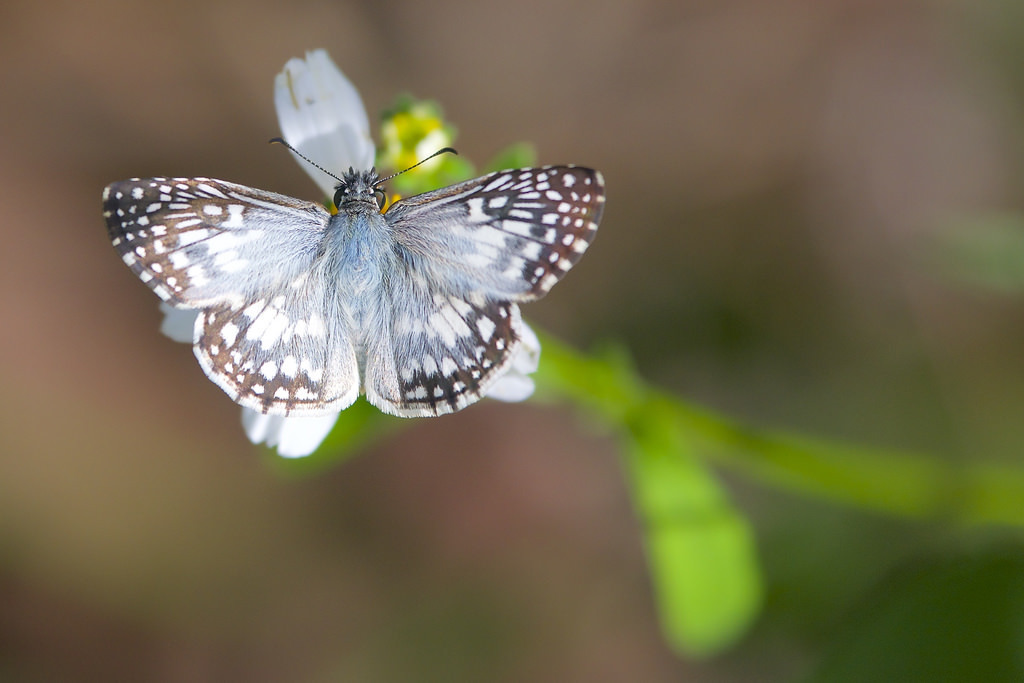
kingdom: Animalia
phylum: Arthropoda
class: Insecta
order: Lepidoptera
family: Hesperiidae
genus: Pyrgus
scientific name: Pyrgus oileus
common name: Tropical checkered-skipper
